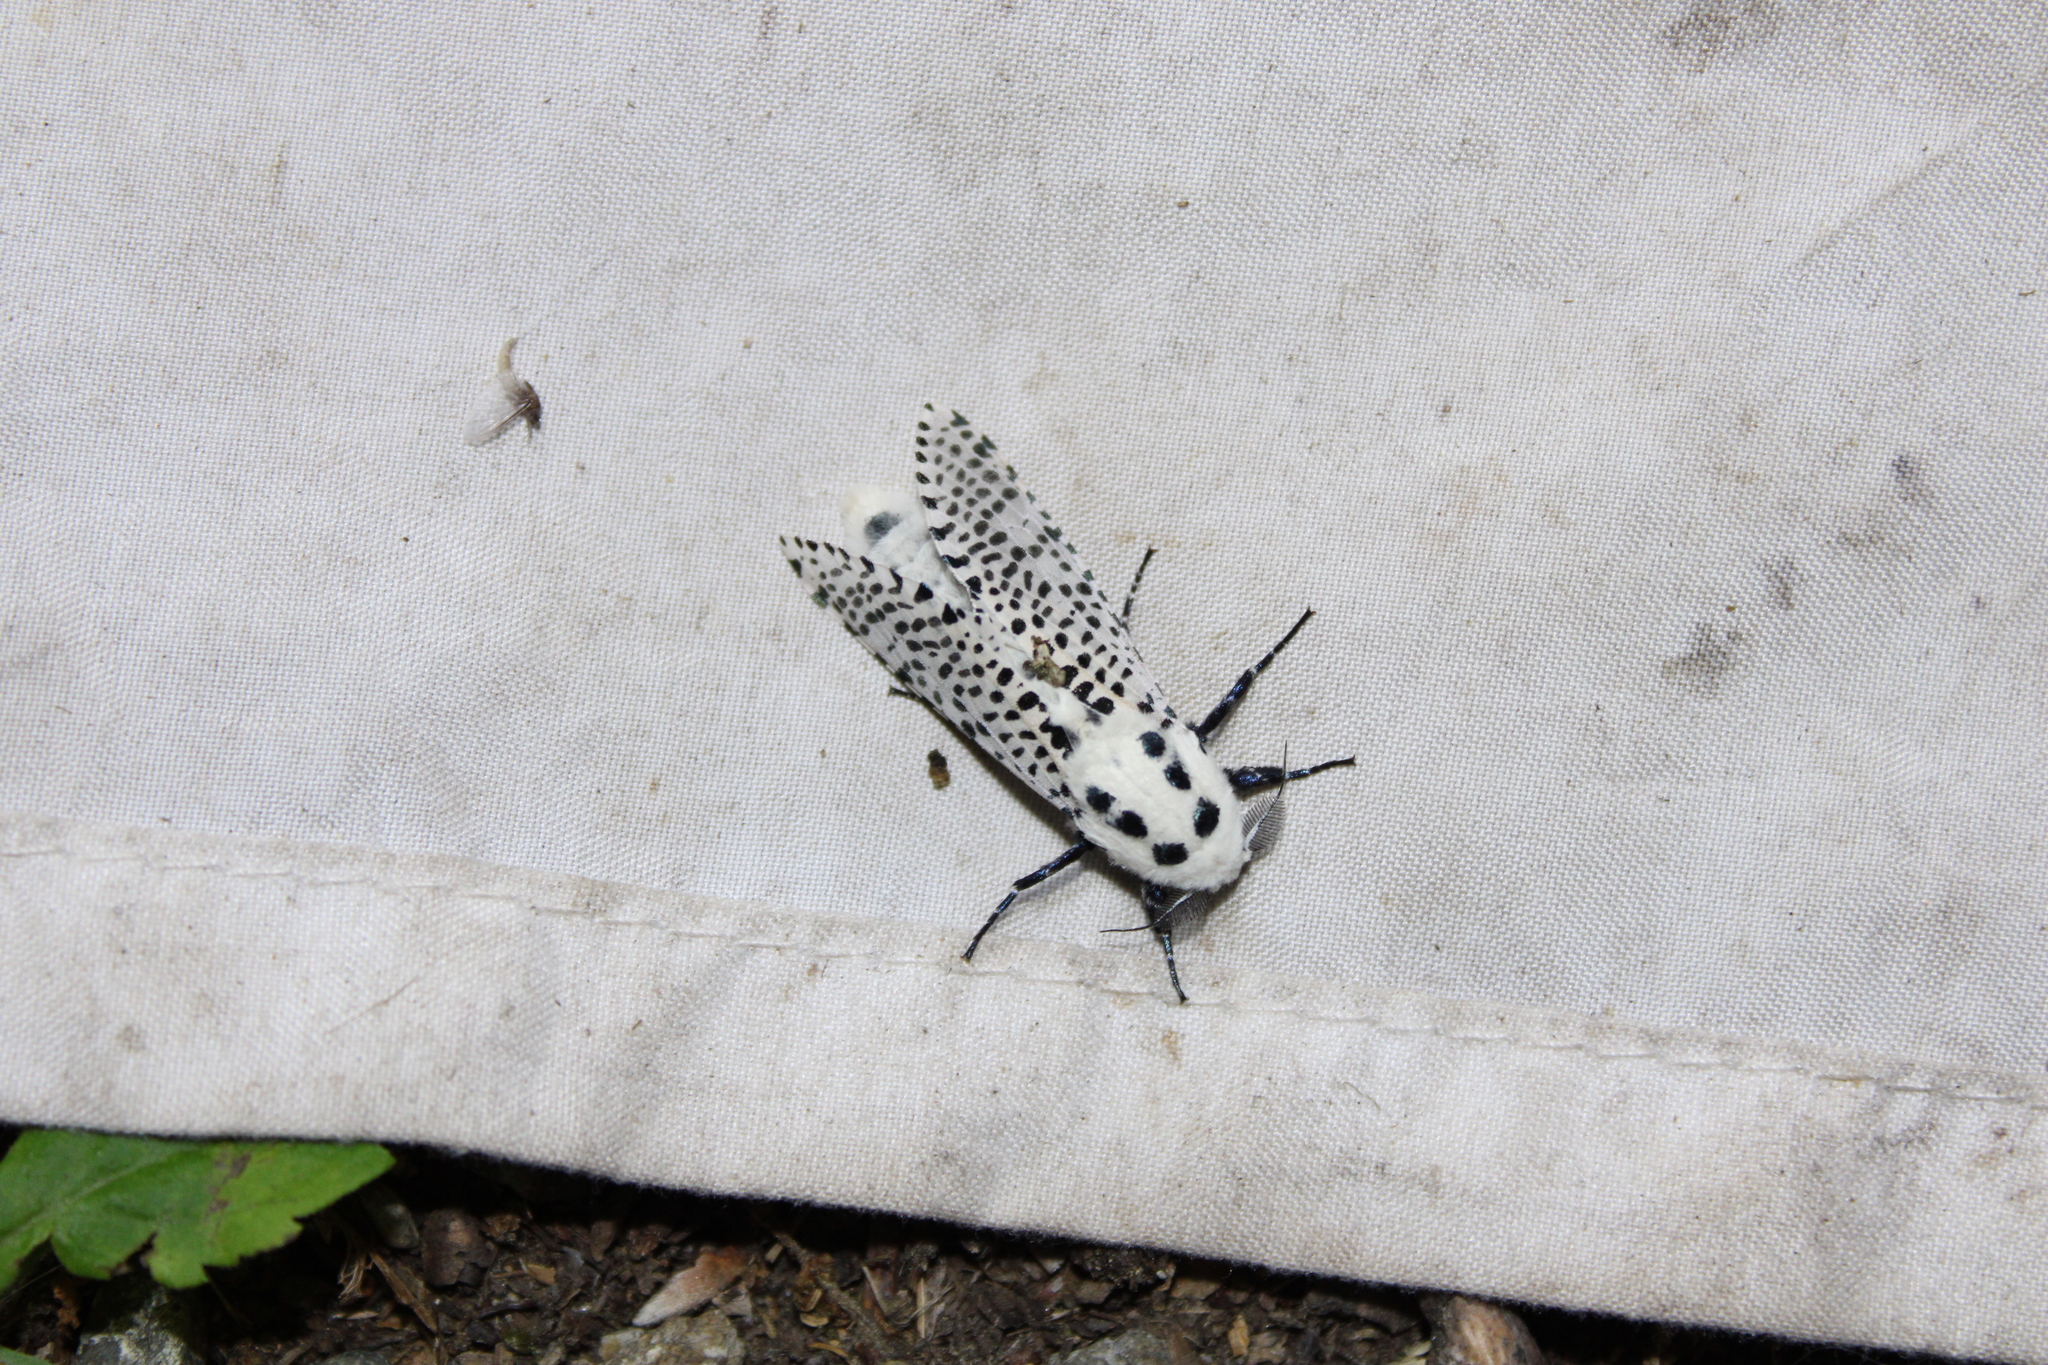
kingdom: Animalia
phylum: Arthropoda
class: Insecta
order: Lepidoptera
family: Cossidae
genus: Zeuzera
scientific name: Zeuzera pyrina
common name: Leopard moth
